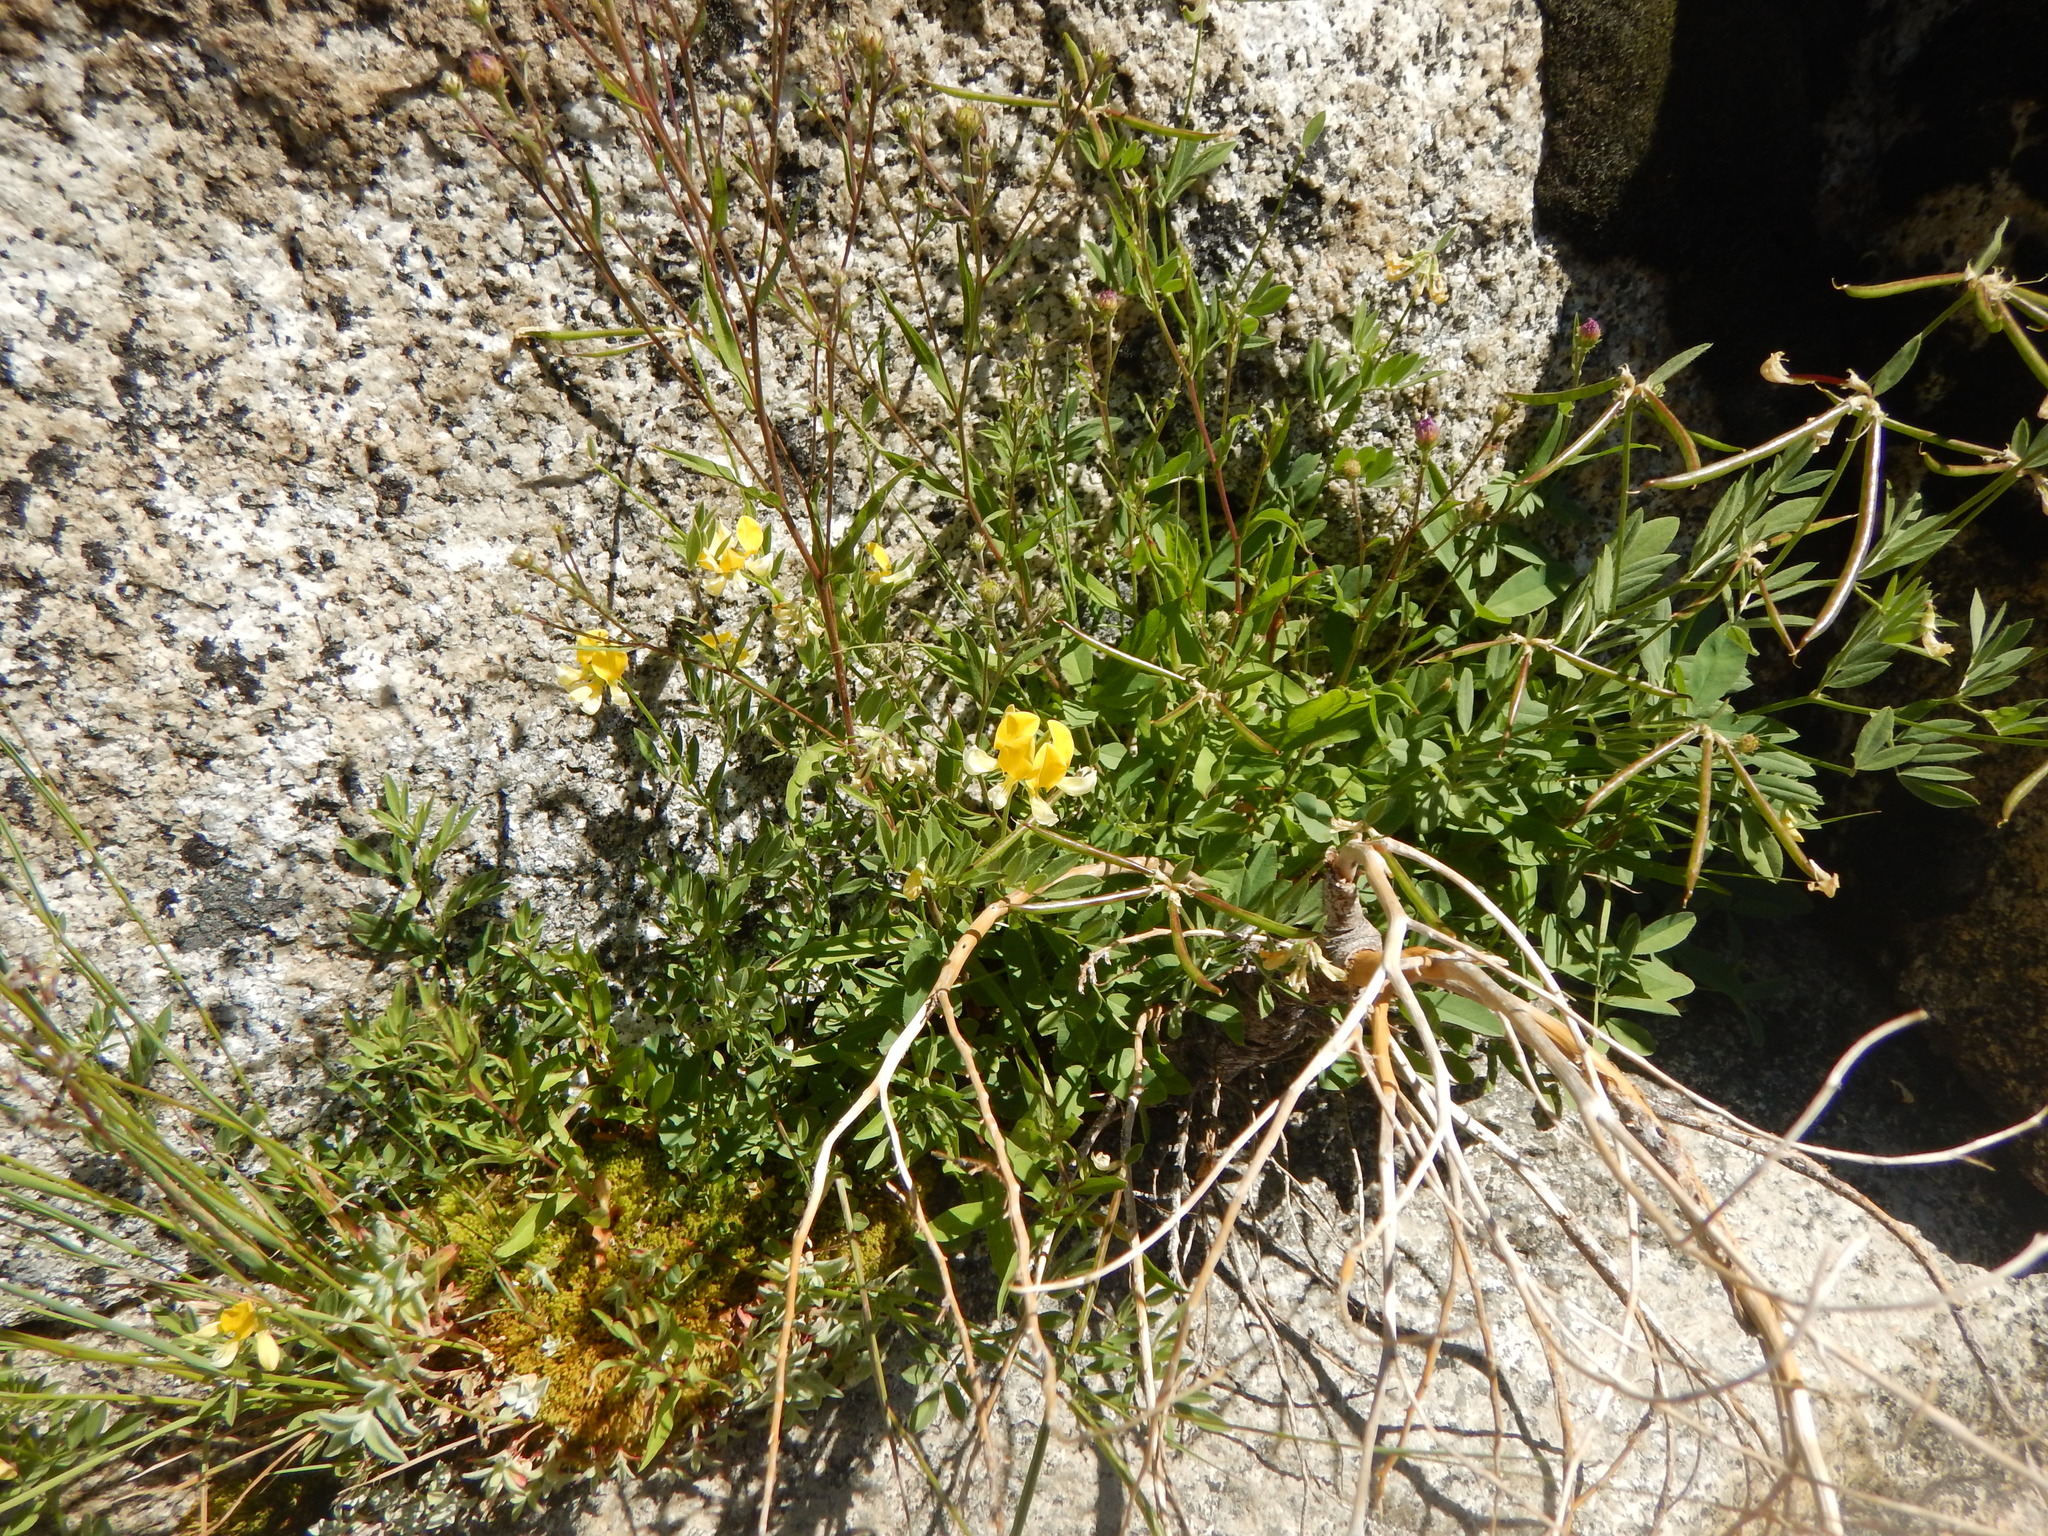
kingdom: Plantae
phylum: Tracheophyta
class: Magnoliopsida
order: Fabales
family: Fabaceae
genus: Hosackia
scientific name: Hosackia oblongifolia
